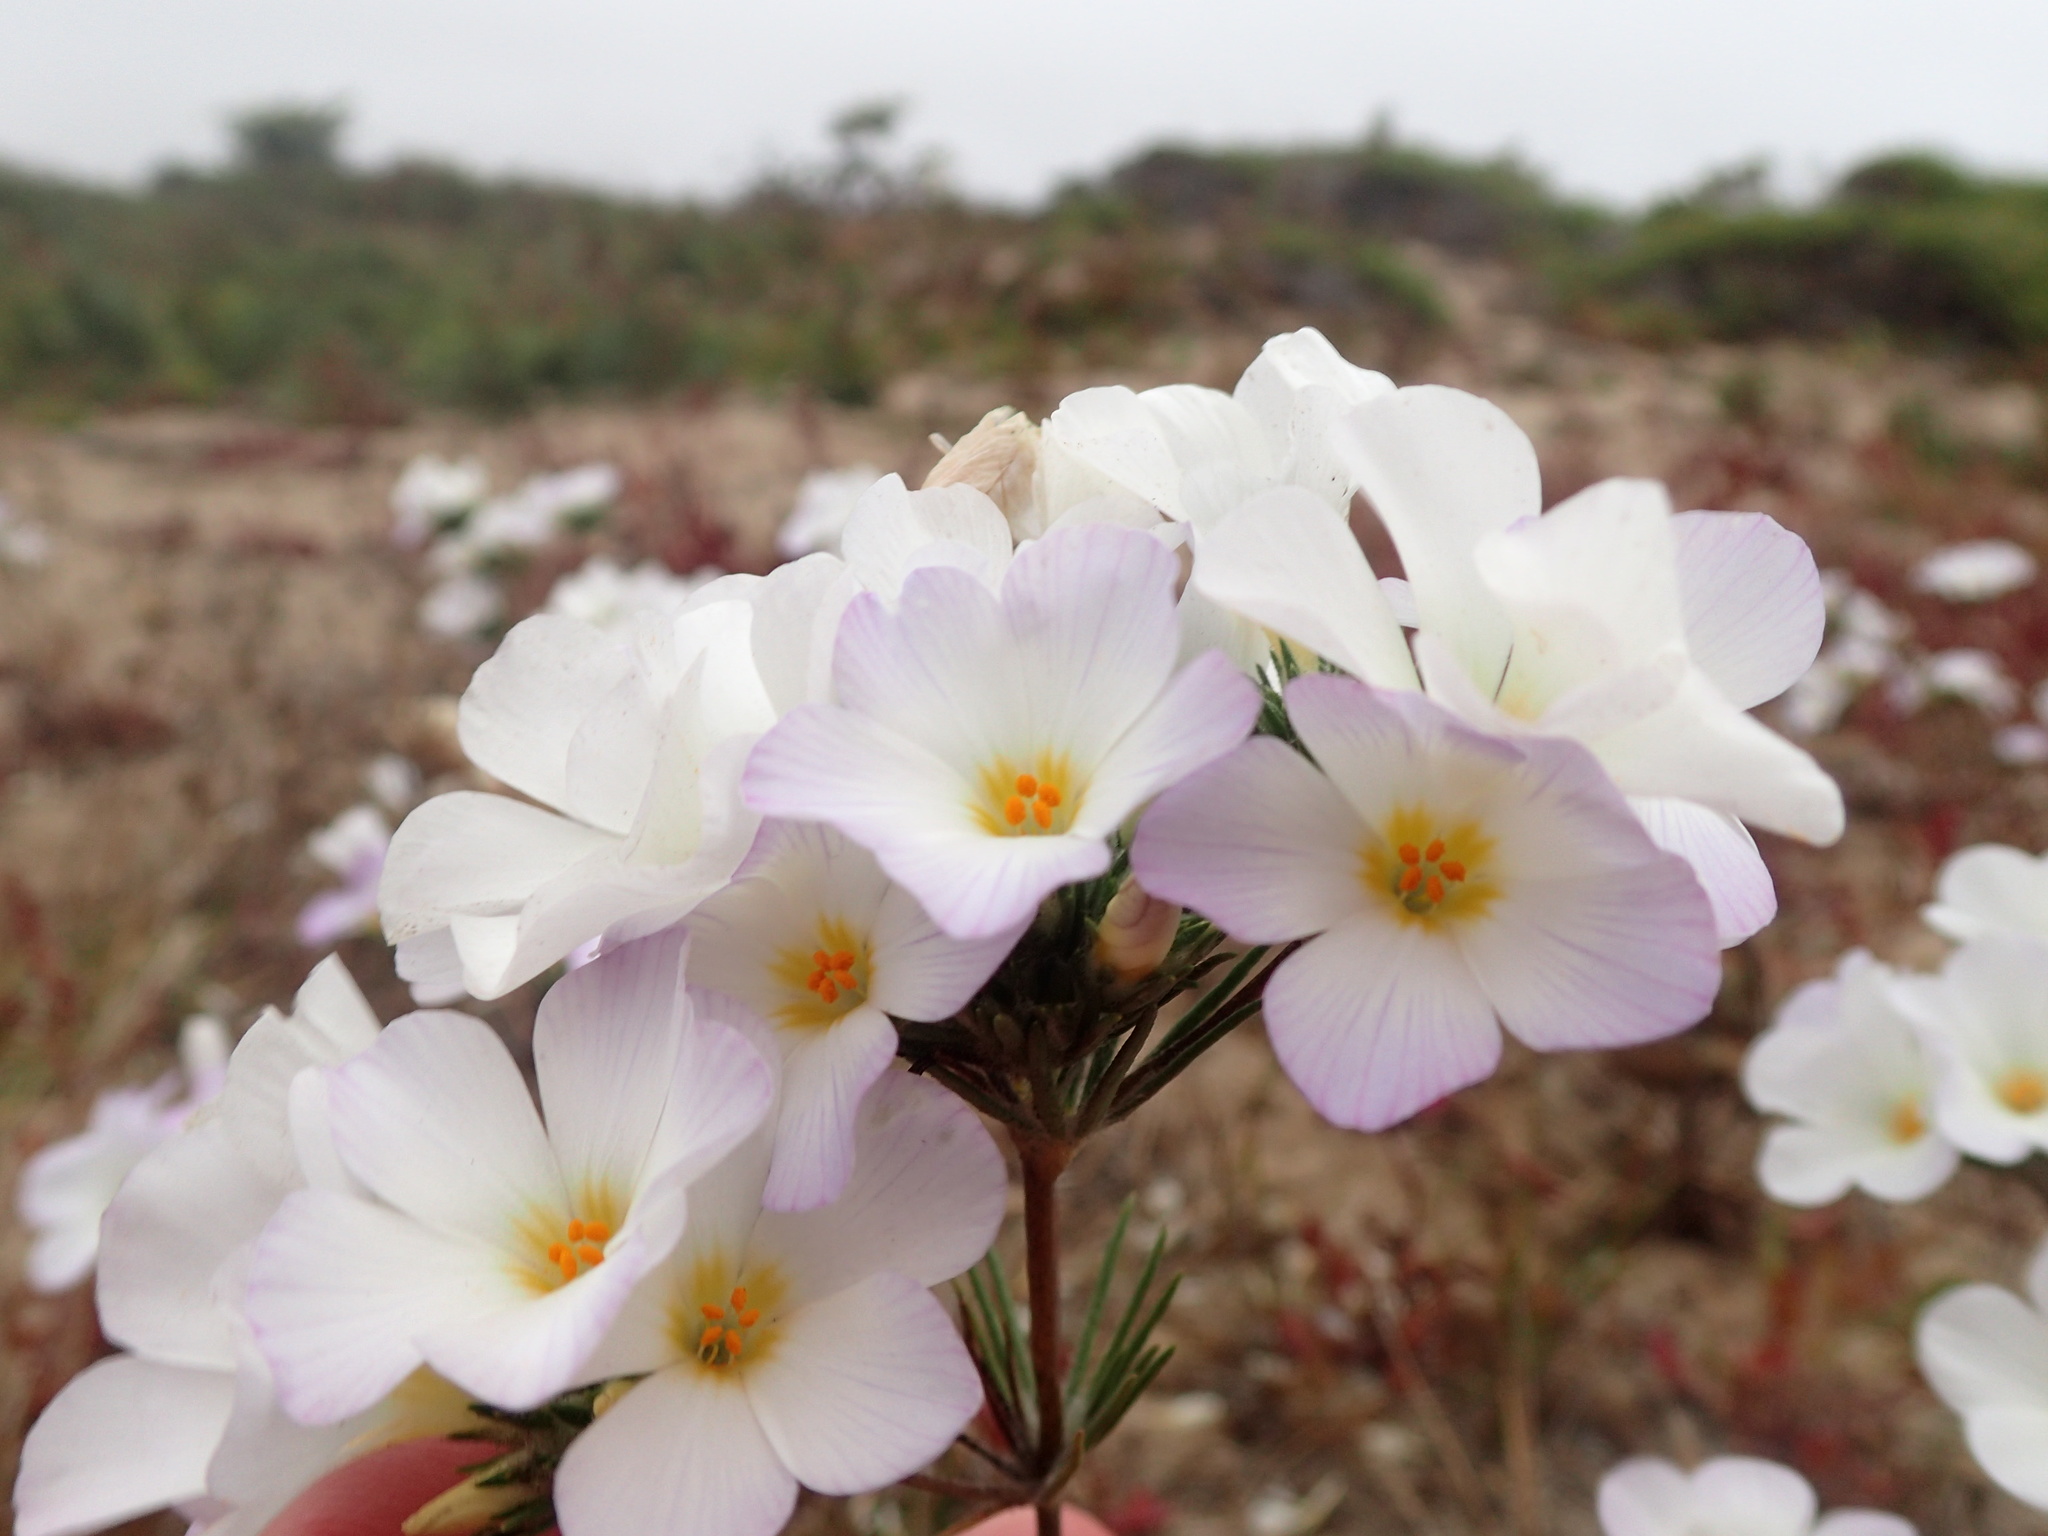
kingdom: Plantae
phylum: Tracheophyta
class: Magnoliopsida
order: Ericales
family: Polemoniaceae
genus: Leptosiphon
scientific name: Leptosiphon grandiflorus
